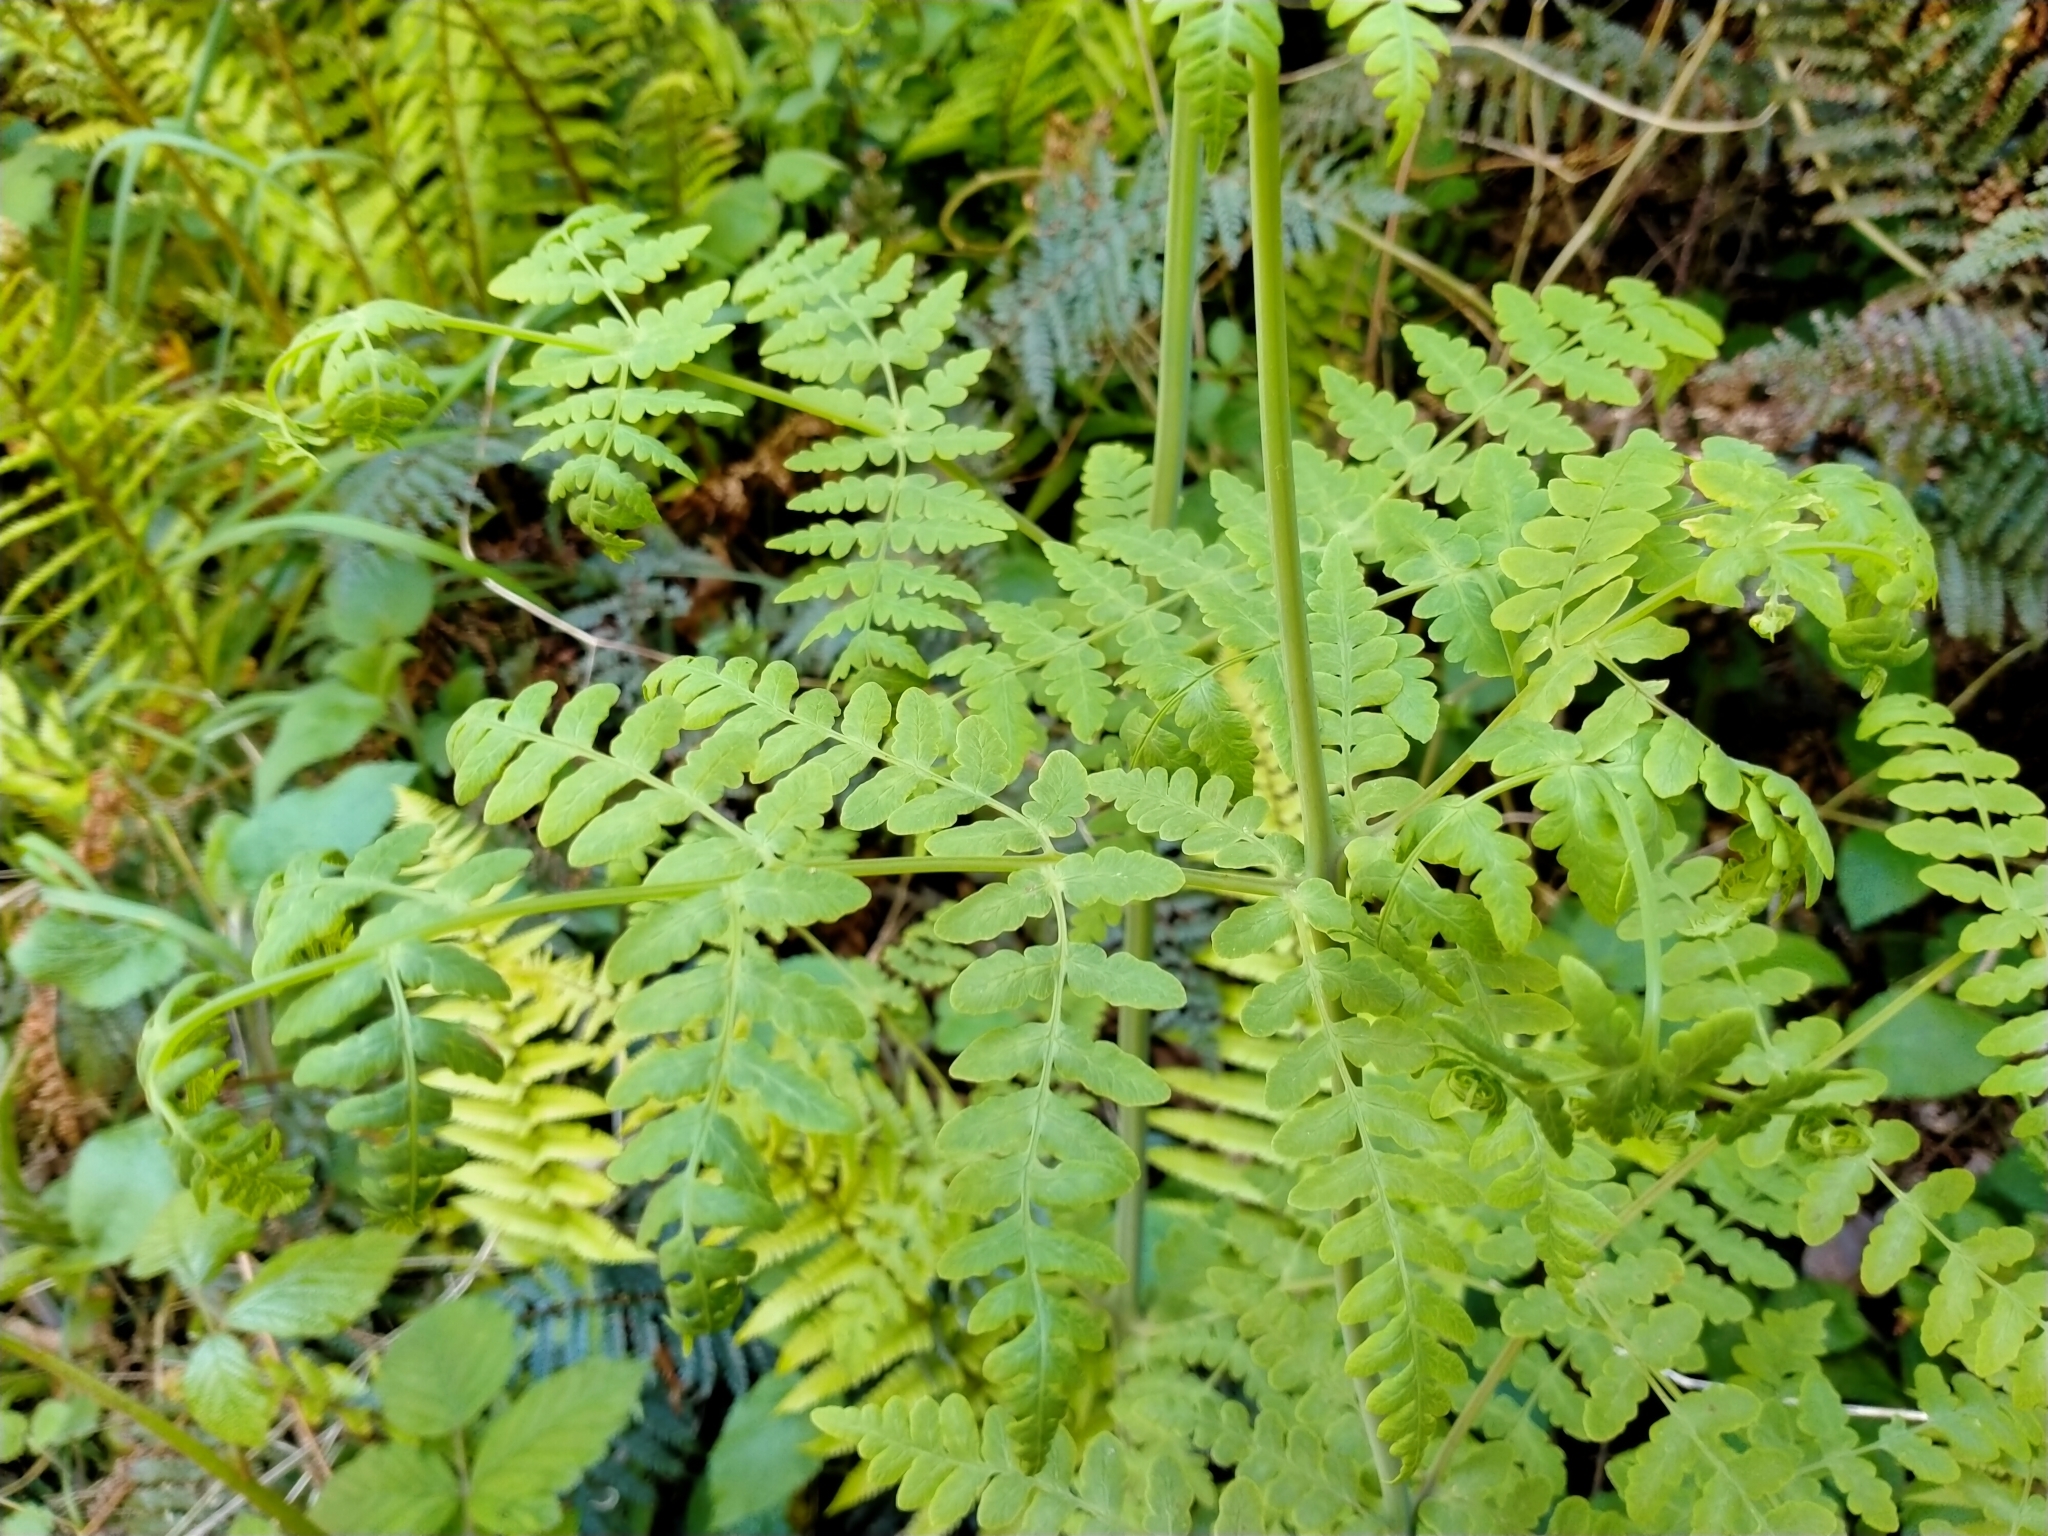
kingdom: Plantae
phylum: Tracheophyta
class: Polypodiopsida
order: Polypodiales
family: Dennstaedtiaceae
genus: Histiopteris
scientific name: Histiopteris incisa
